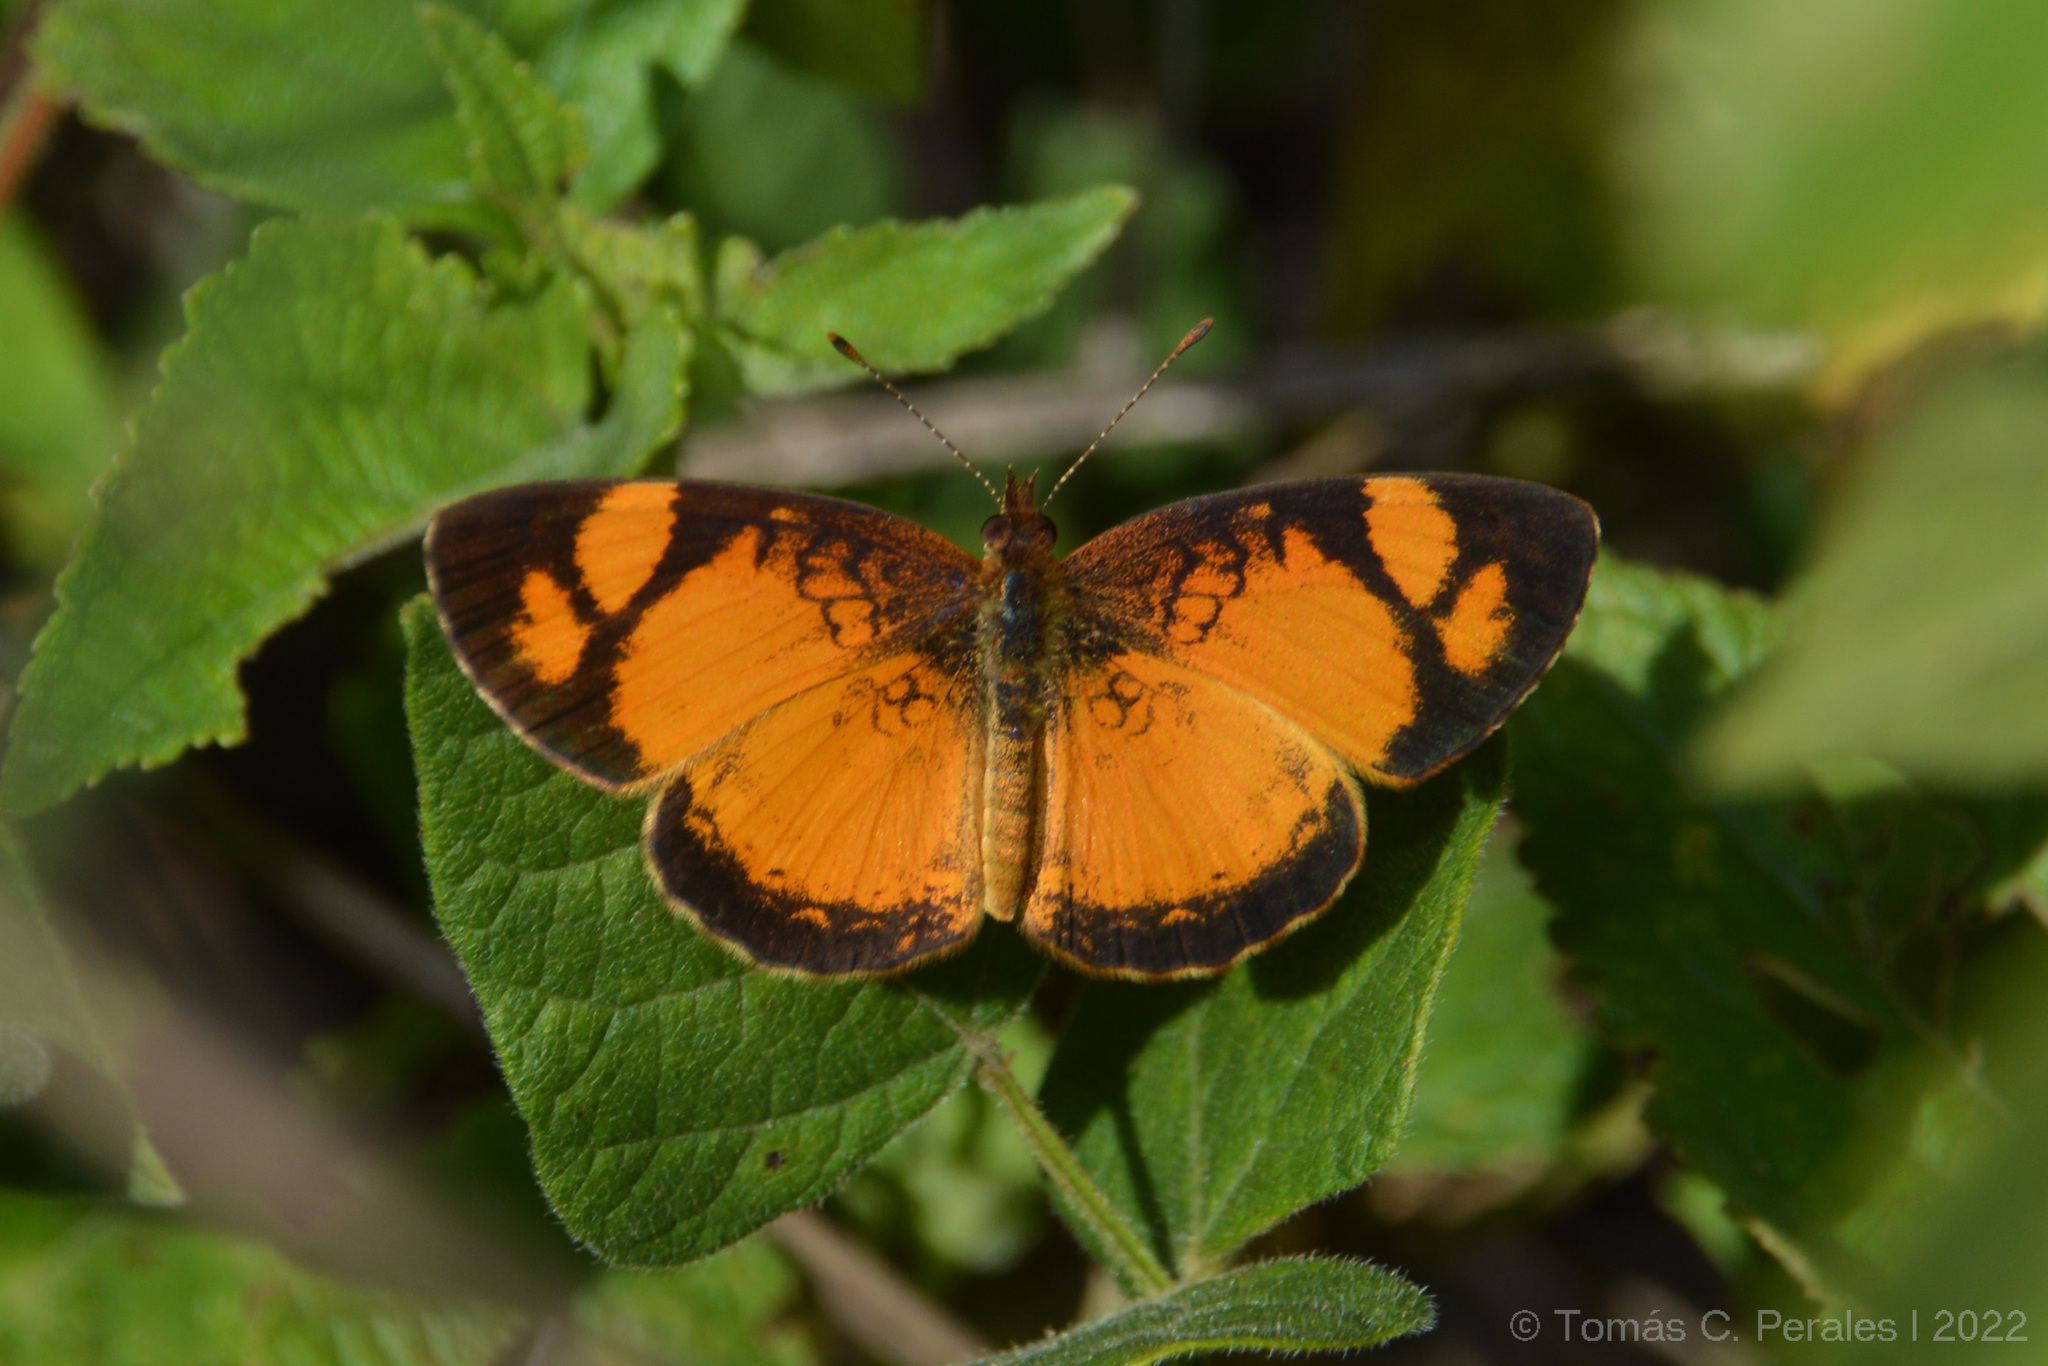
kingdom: Animalia
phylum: Arthropoda
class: Insecta
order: Lepidoptera
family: Nymphalidae
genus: Tegosa
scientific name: Tegosa claudina
